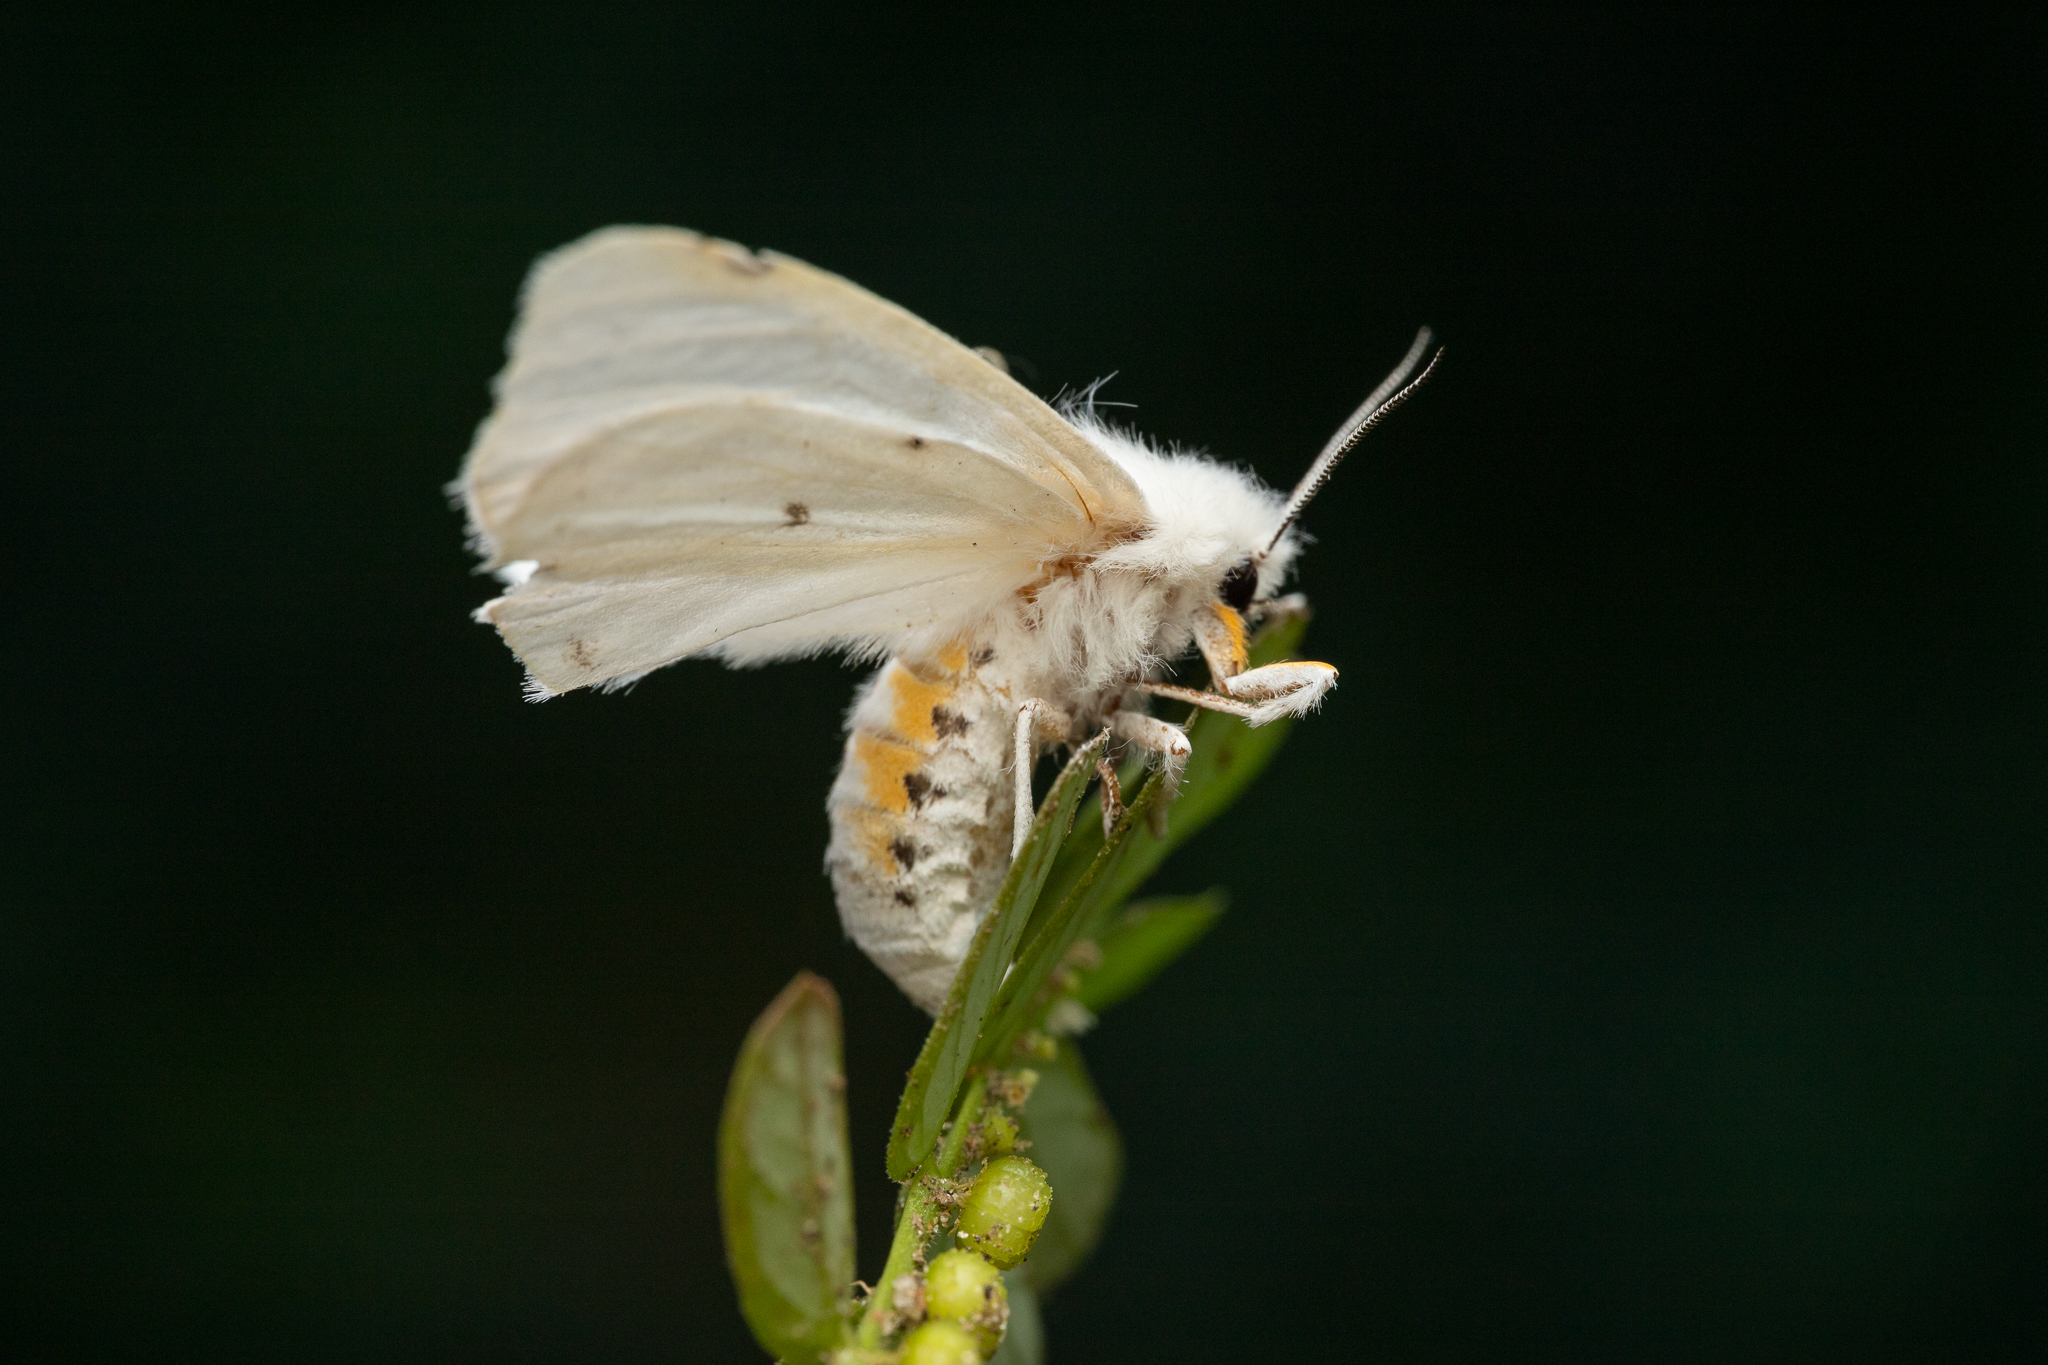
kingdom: Animalia
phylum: Arthropoda
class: Insecta
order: Lepidoptera
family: Erebidae
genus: Spilosoma
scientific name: Spilosoma virginica
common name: Virginia tiger moth
